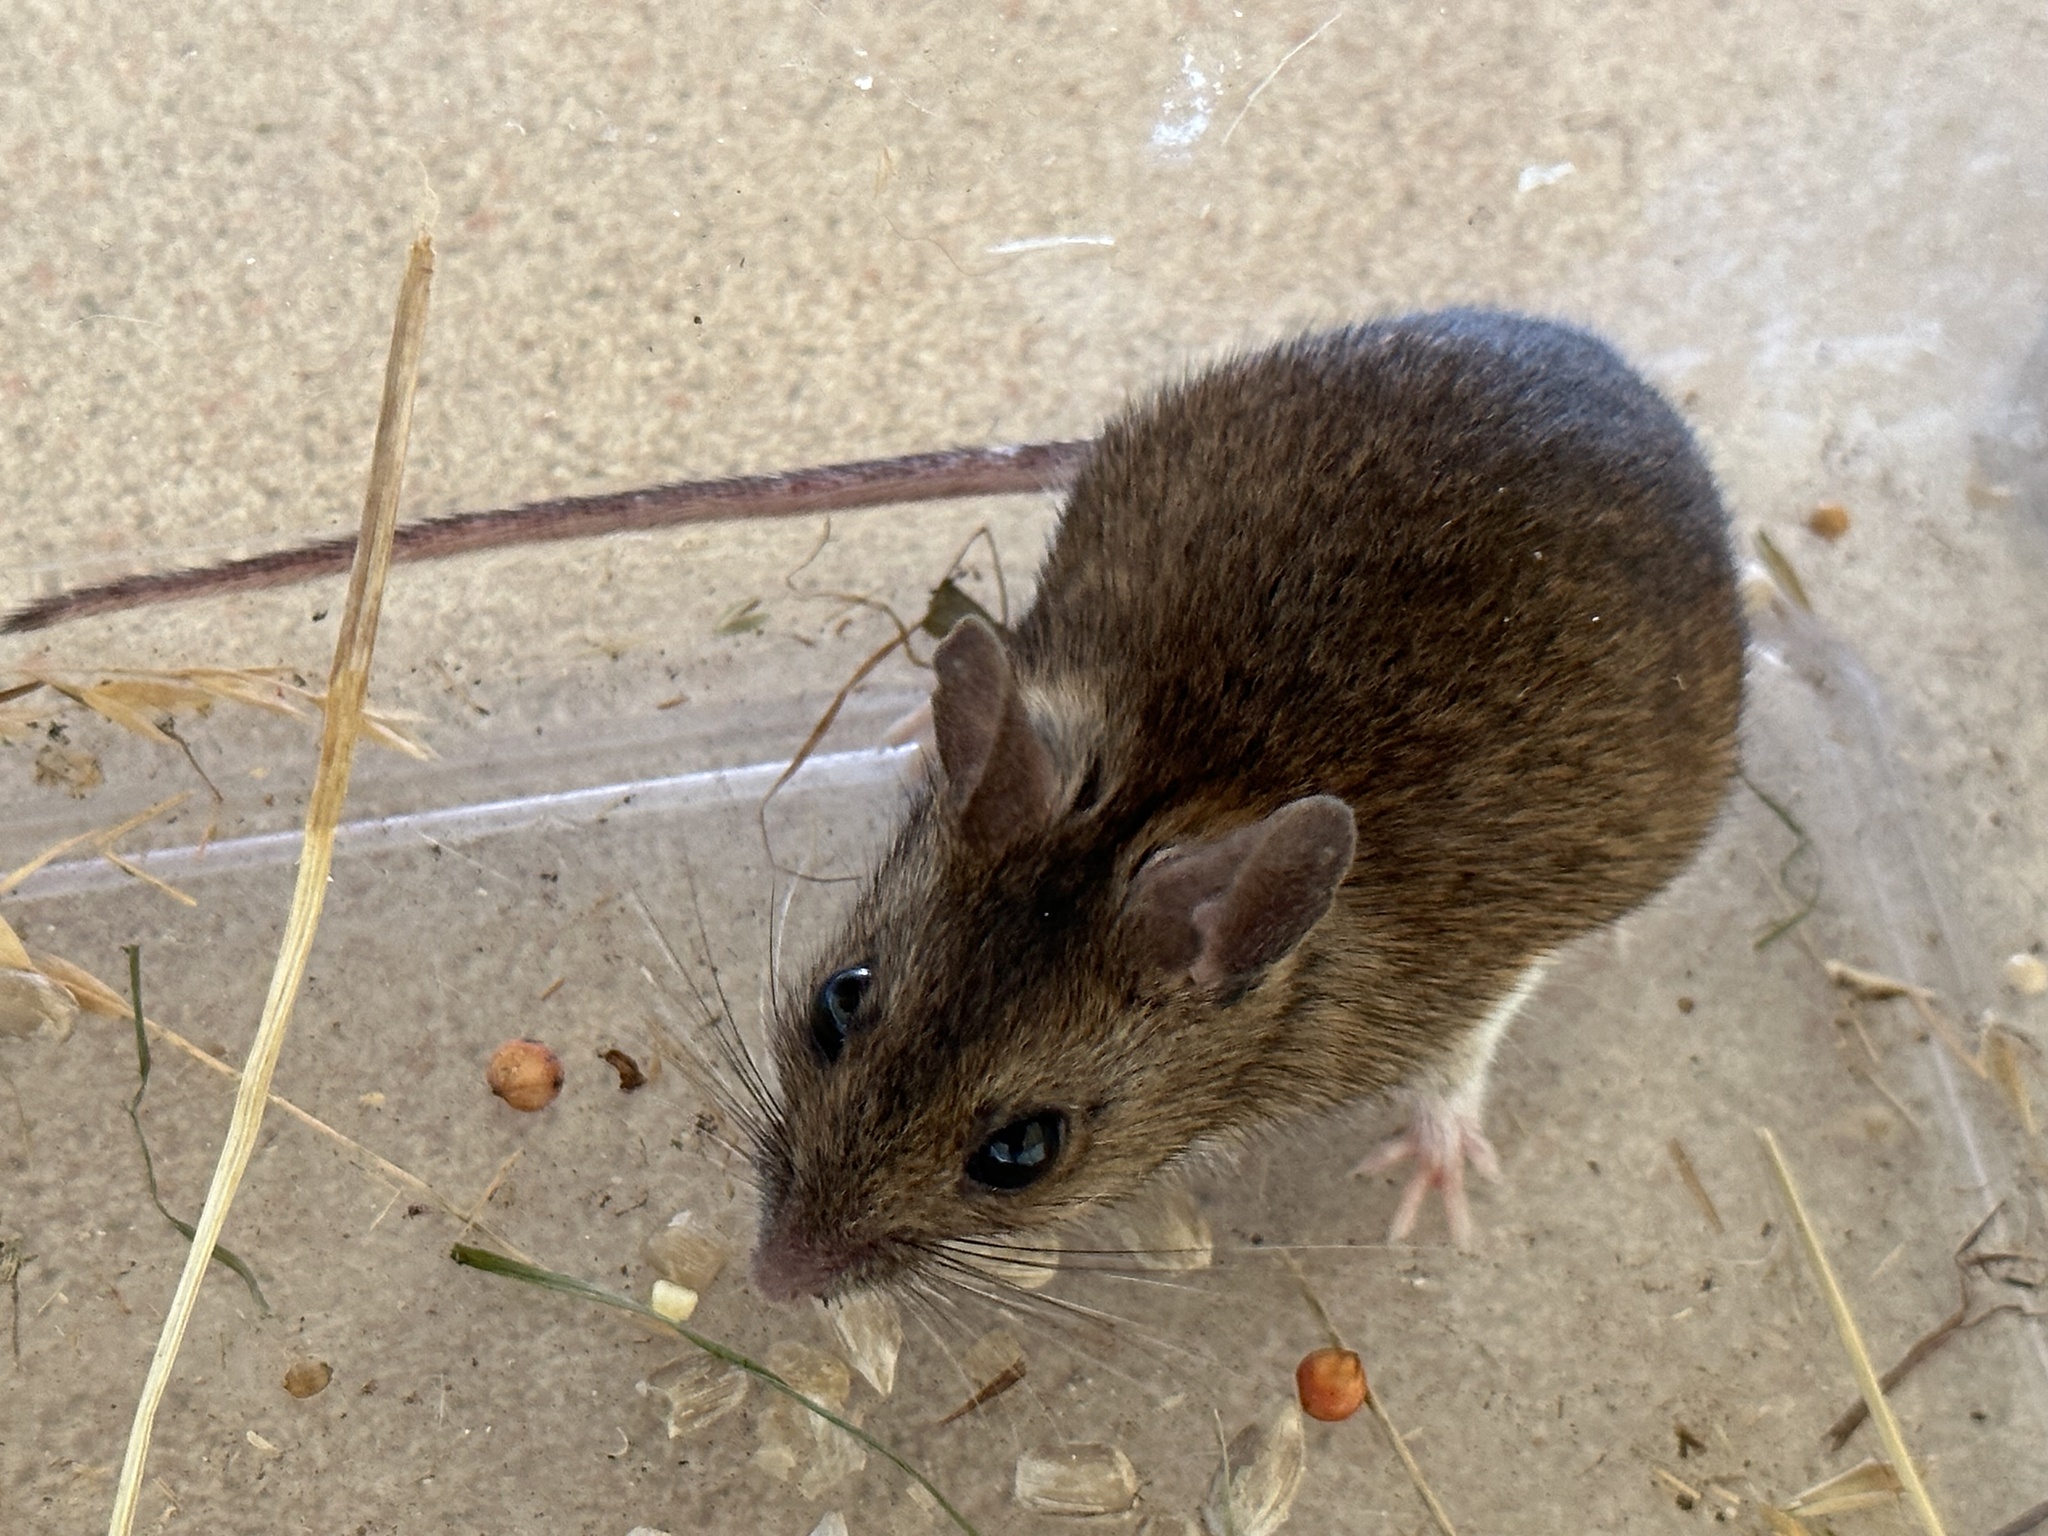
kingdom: Animalia
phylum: Chordata
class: Mammalia
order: Rodentia
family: Muridae
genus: Apodemus
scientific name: Apodemus sylvaticus
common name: Wood mouse
